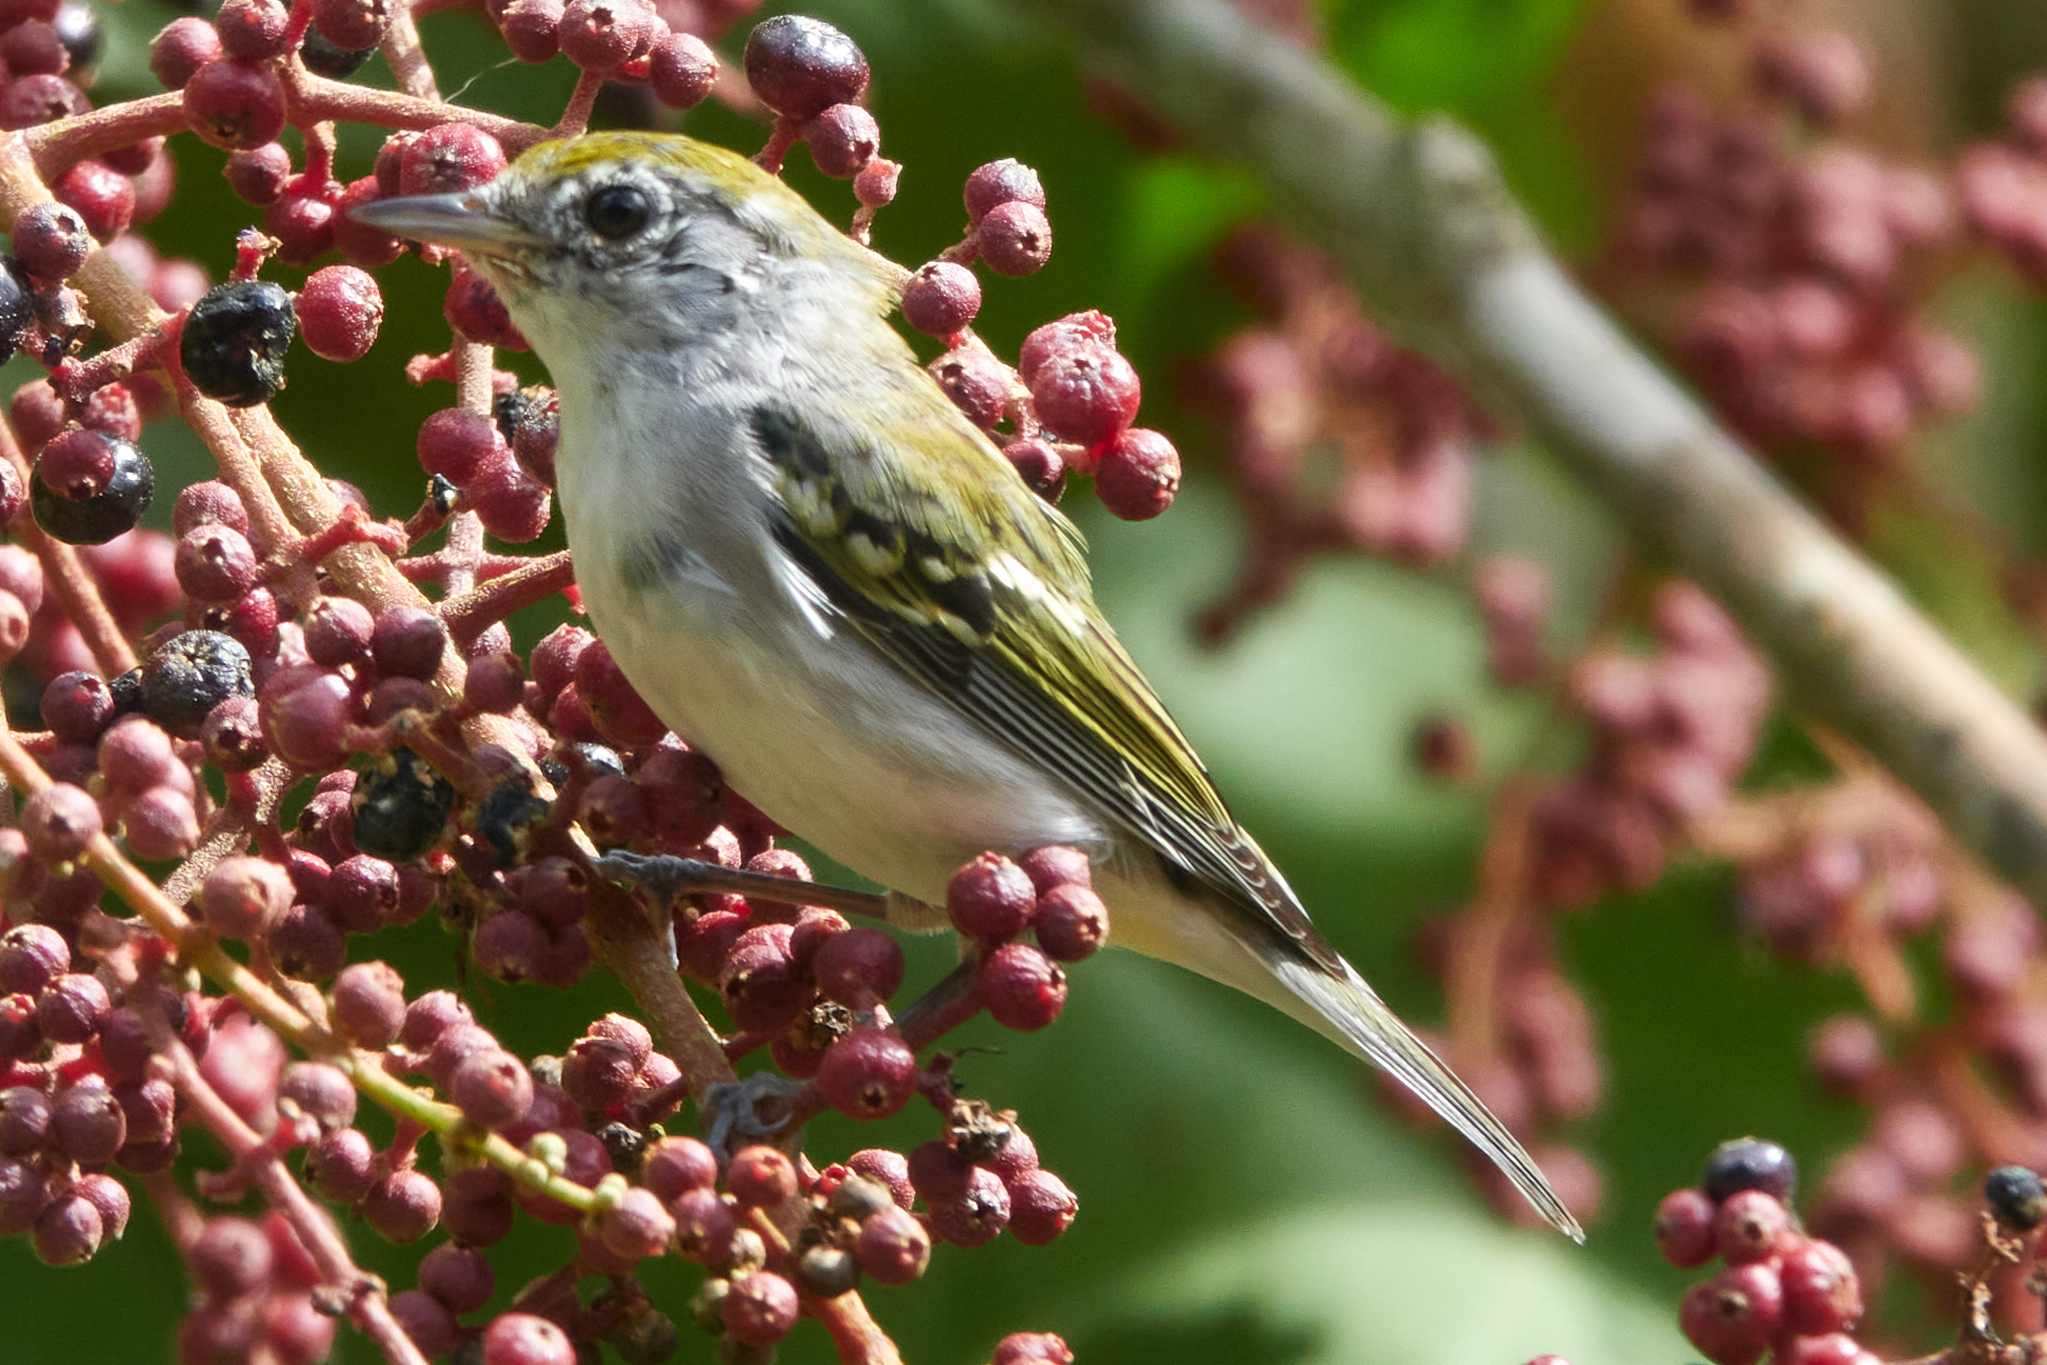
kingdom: Animalia
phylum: Chordata
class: Aves
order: Passeriformes
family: Parulidae
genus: Setophaga
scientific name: Setophaga pensylvanica
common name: Chestnut-sided warbler
